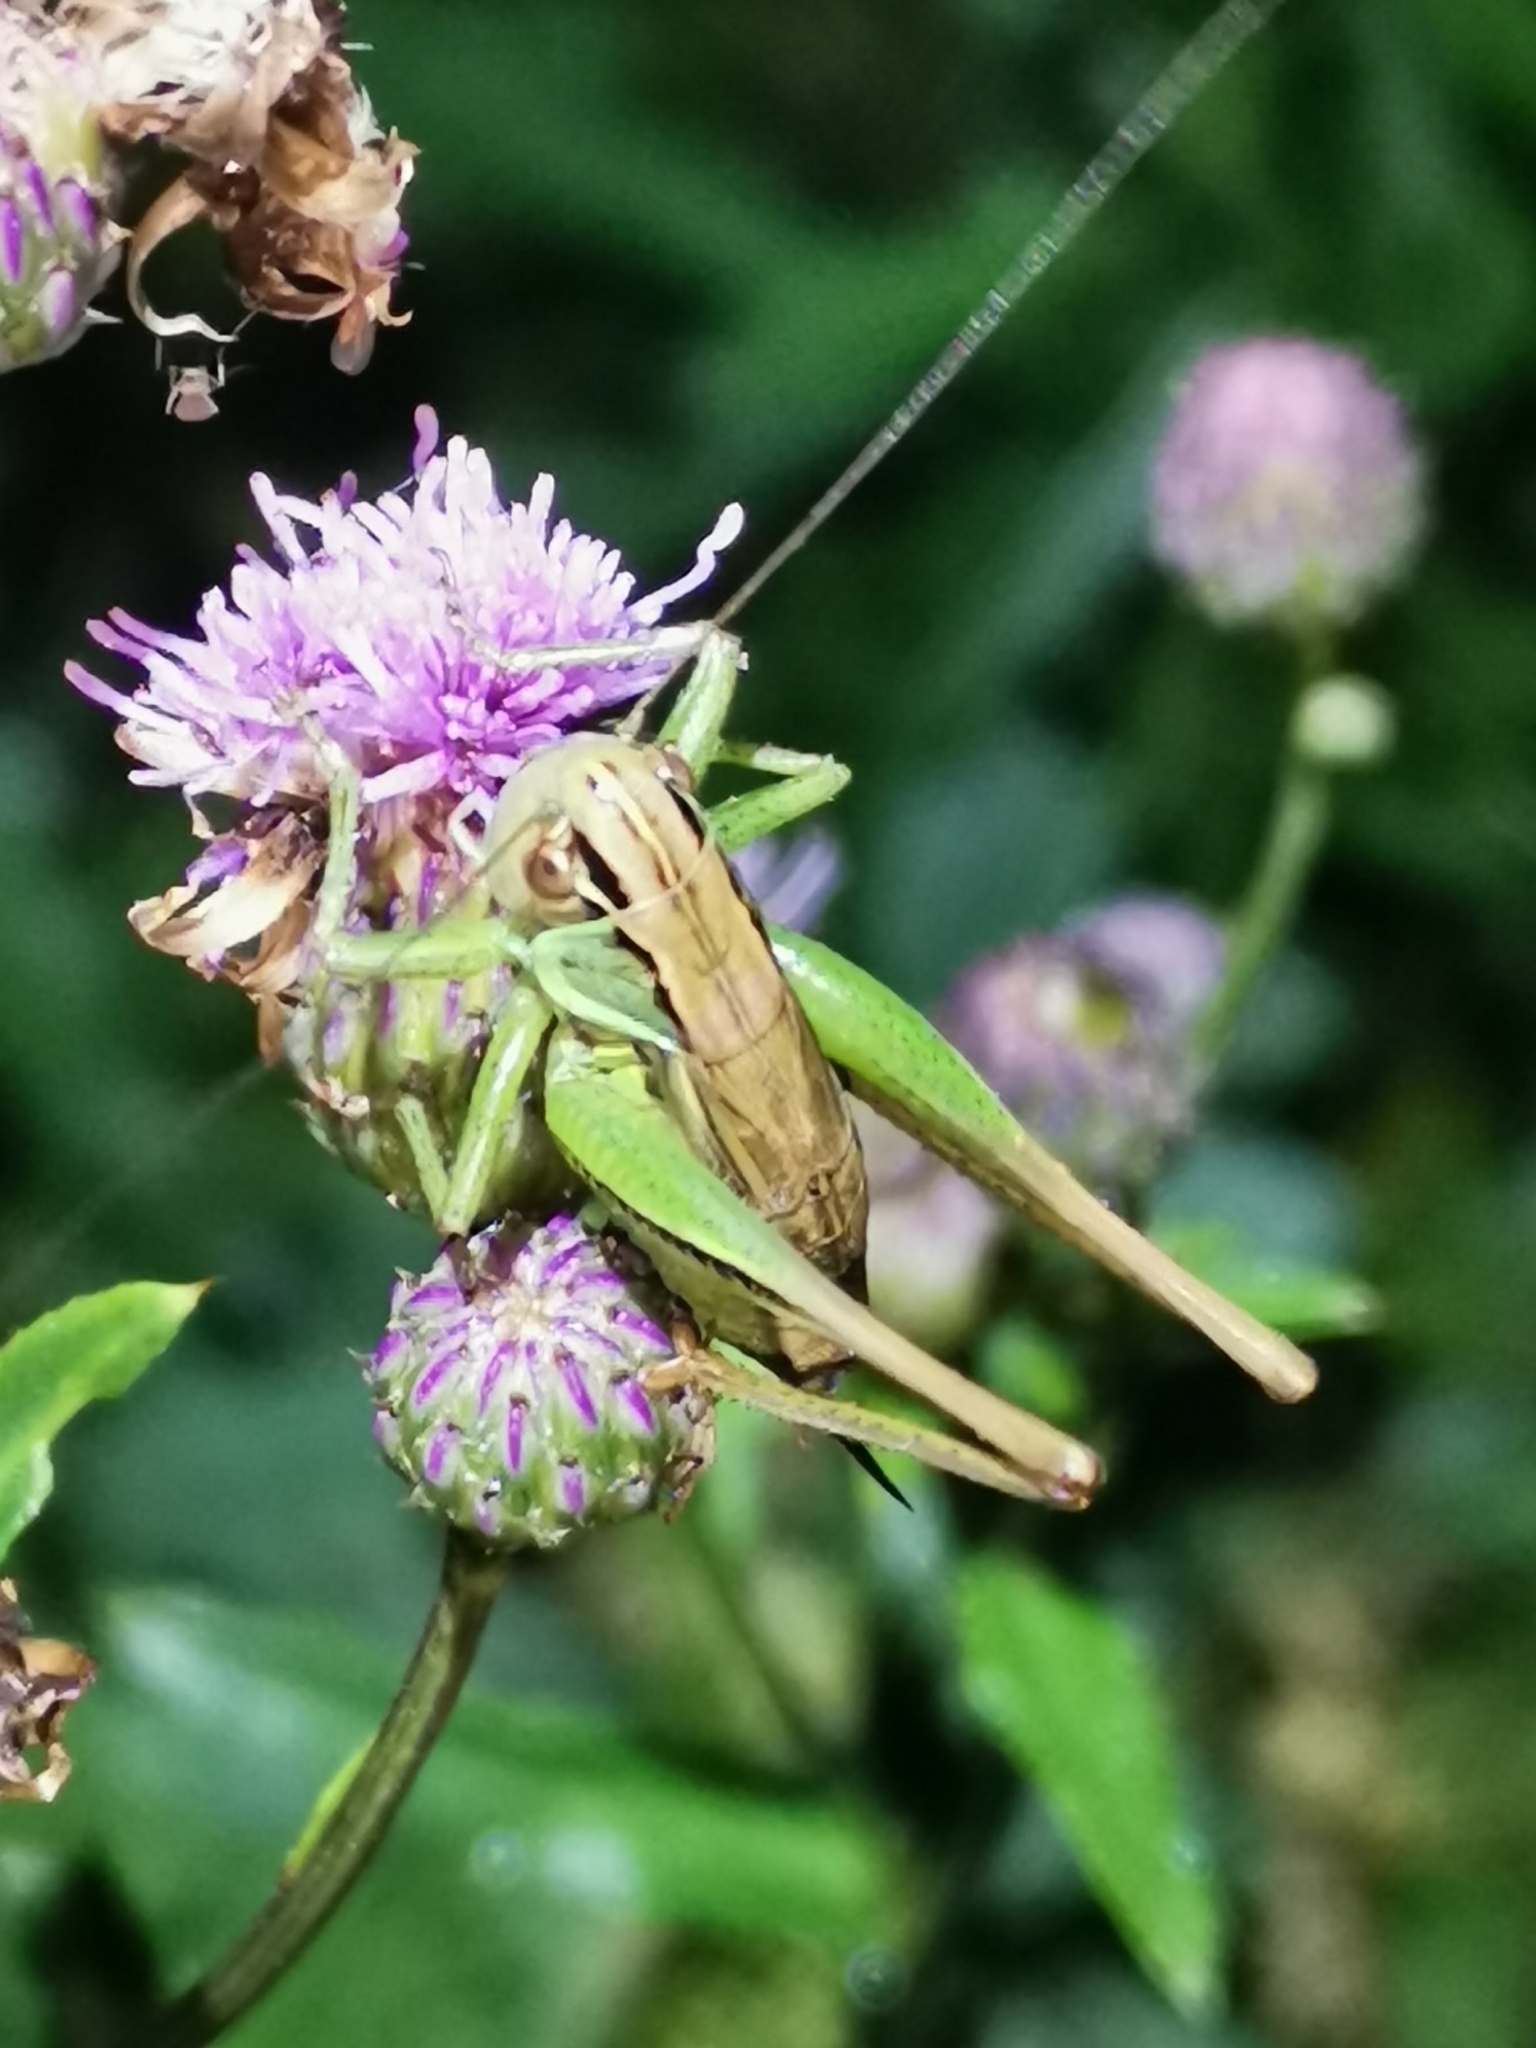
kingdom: Animalia
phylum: Arthropoda
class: Insecta
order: Orthoptera
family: Tettigoniidae
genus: Roeseliana
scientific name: Roeseliana roeselii
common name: Roesel's bush cricket
